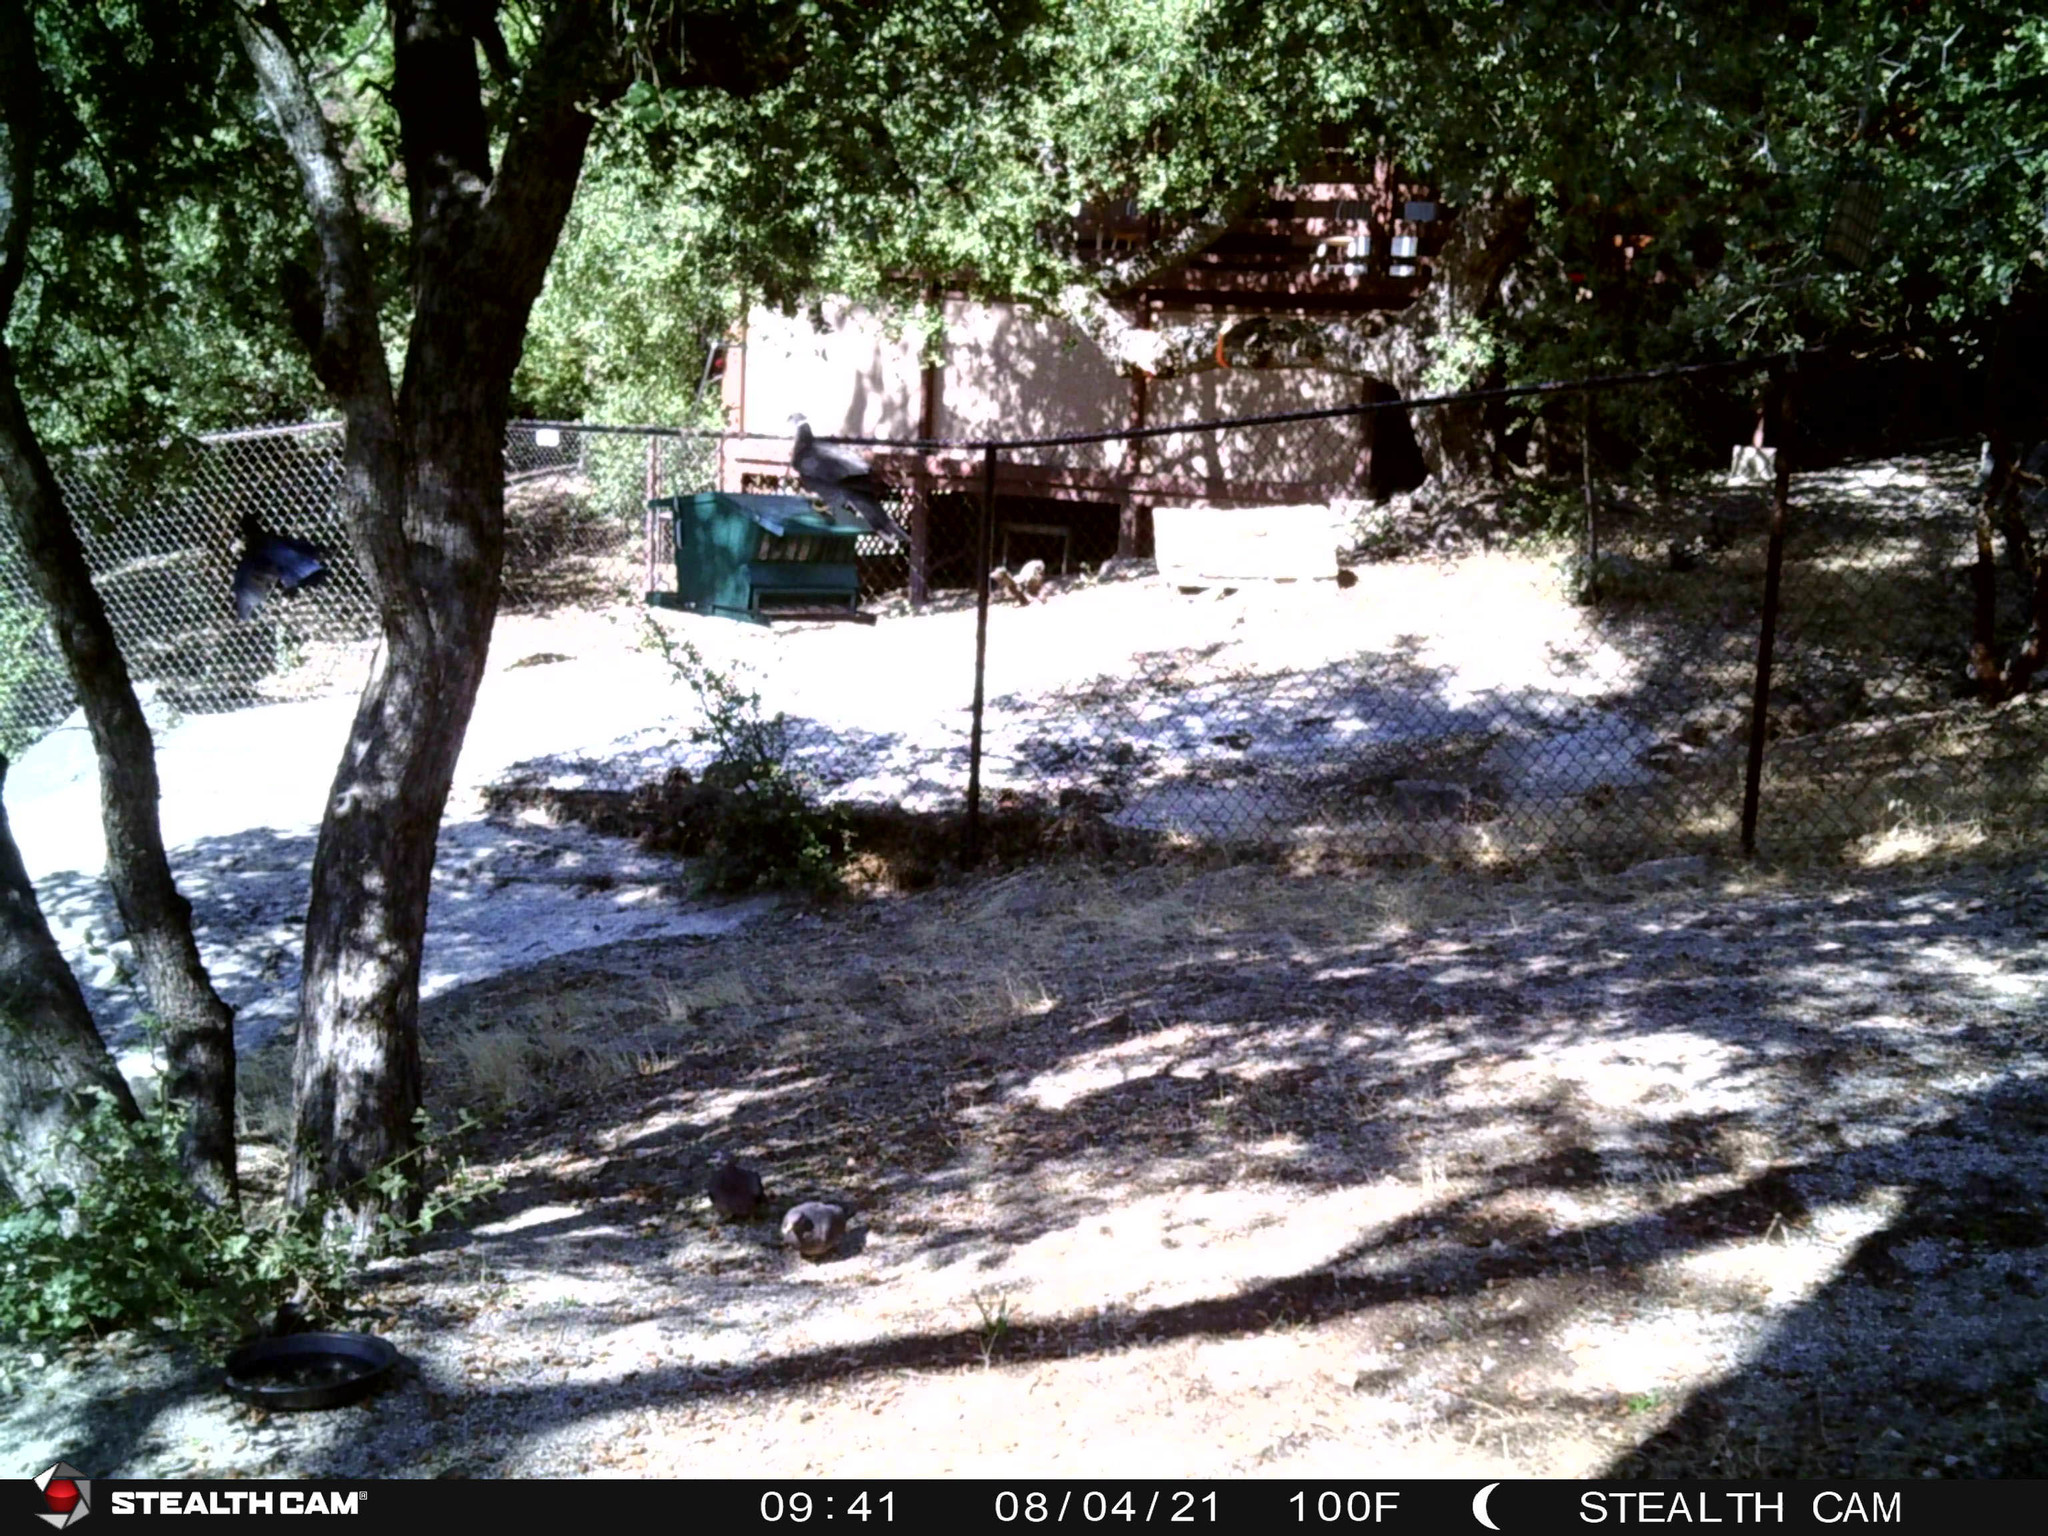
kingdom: Animalia
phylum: Chordata
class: Aves
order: Columbiformes
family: Columbidae
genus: Patagioenas
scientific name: Patagioenas fasciata
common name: Band-tailed pigeon
